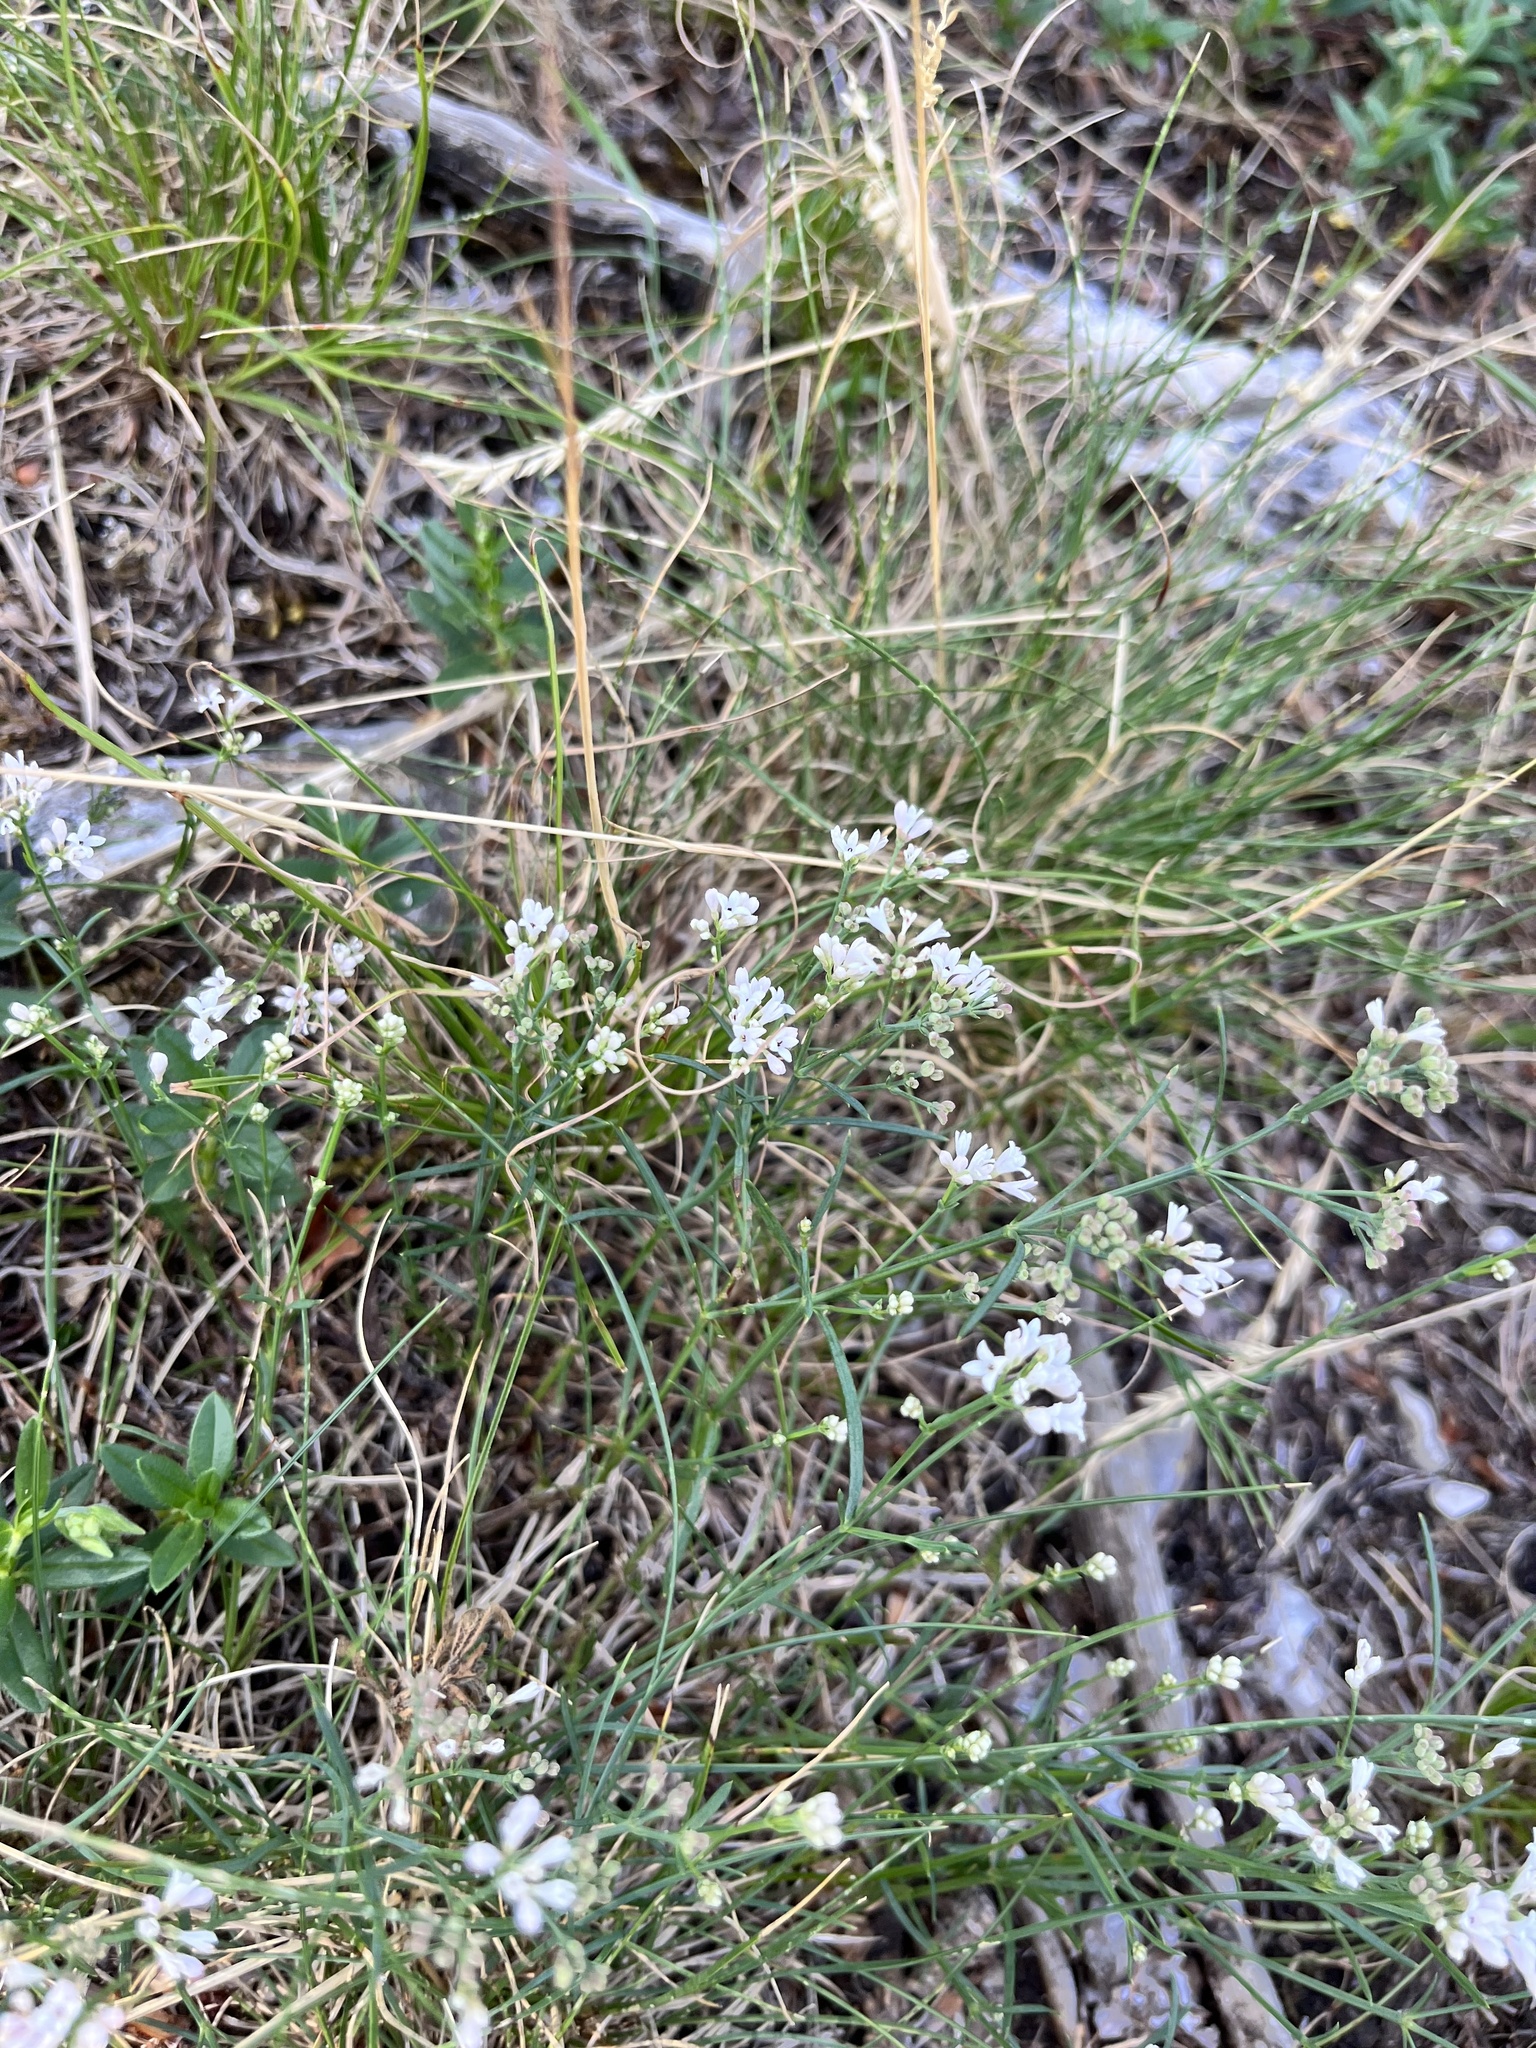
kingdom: Plantae
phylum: Tracheophyta
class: Magnoliopsida
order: Gentianales
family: Rubiaceae
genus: Cynanchica
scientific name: Cynanchica pyrenaica
